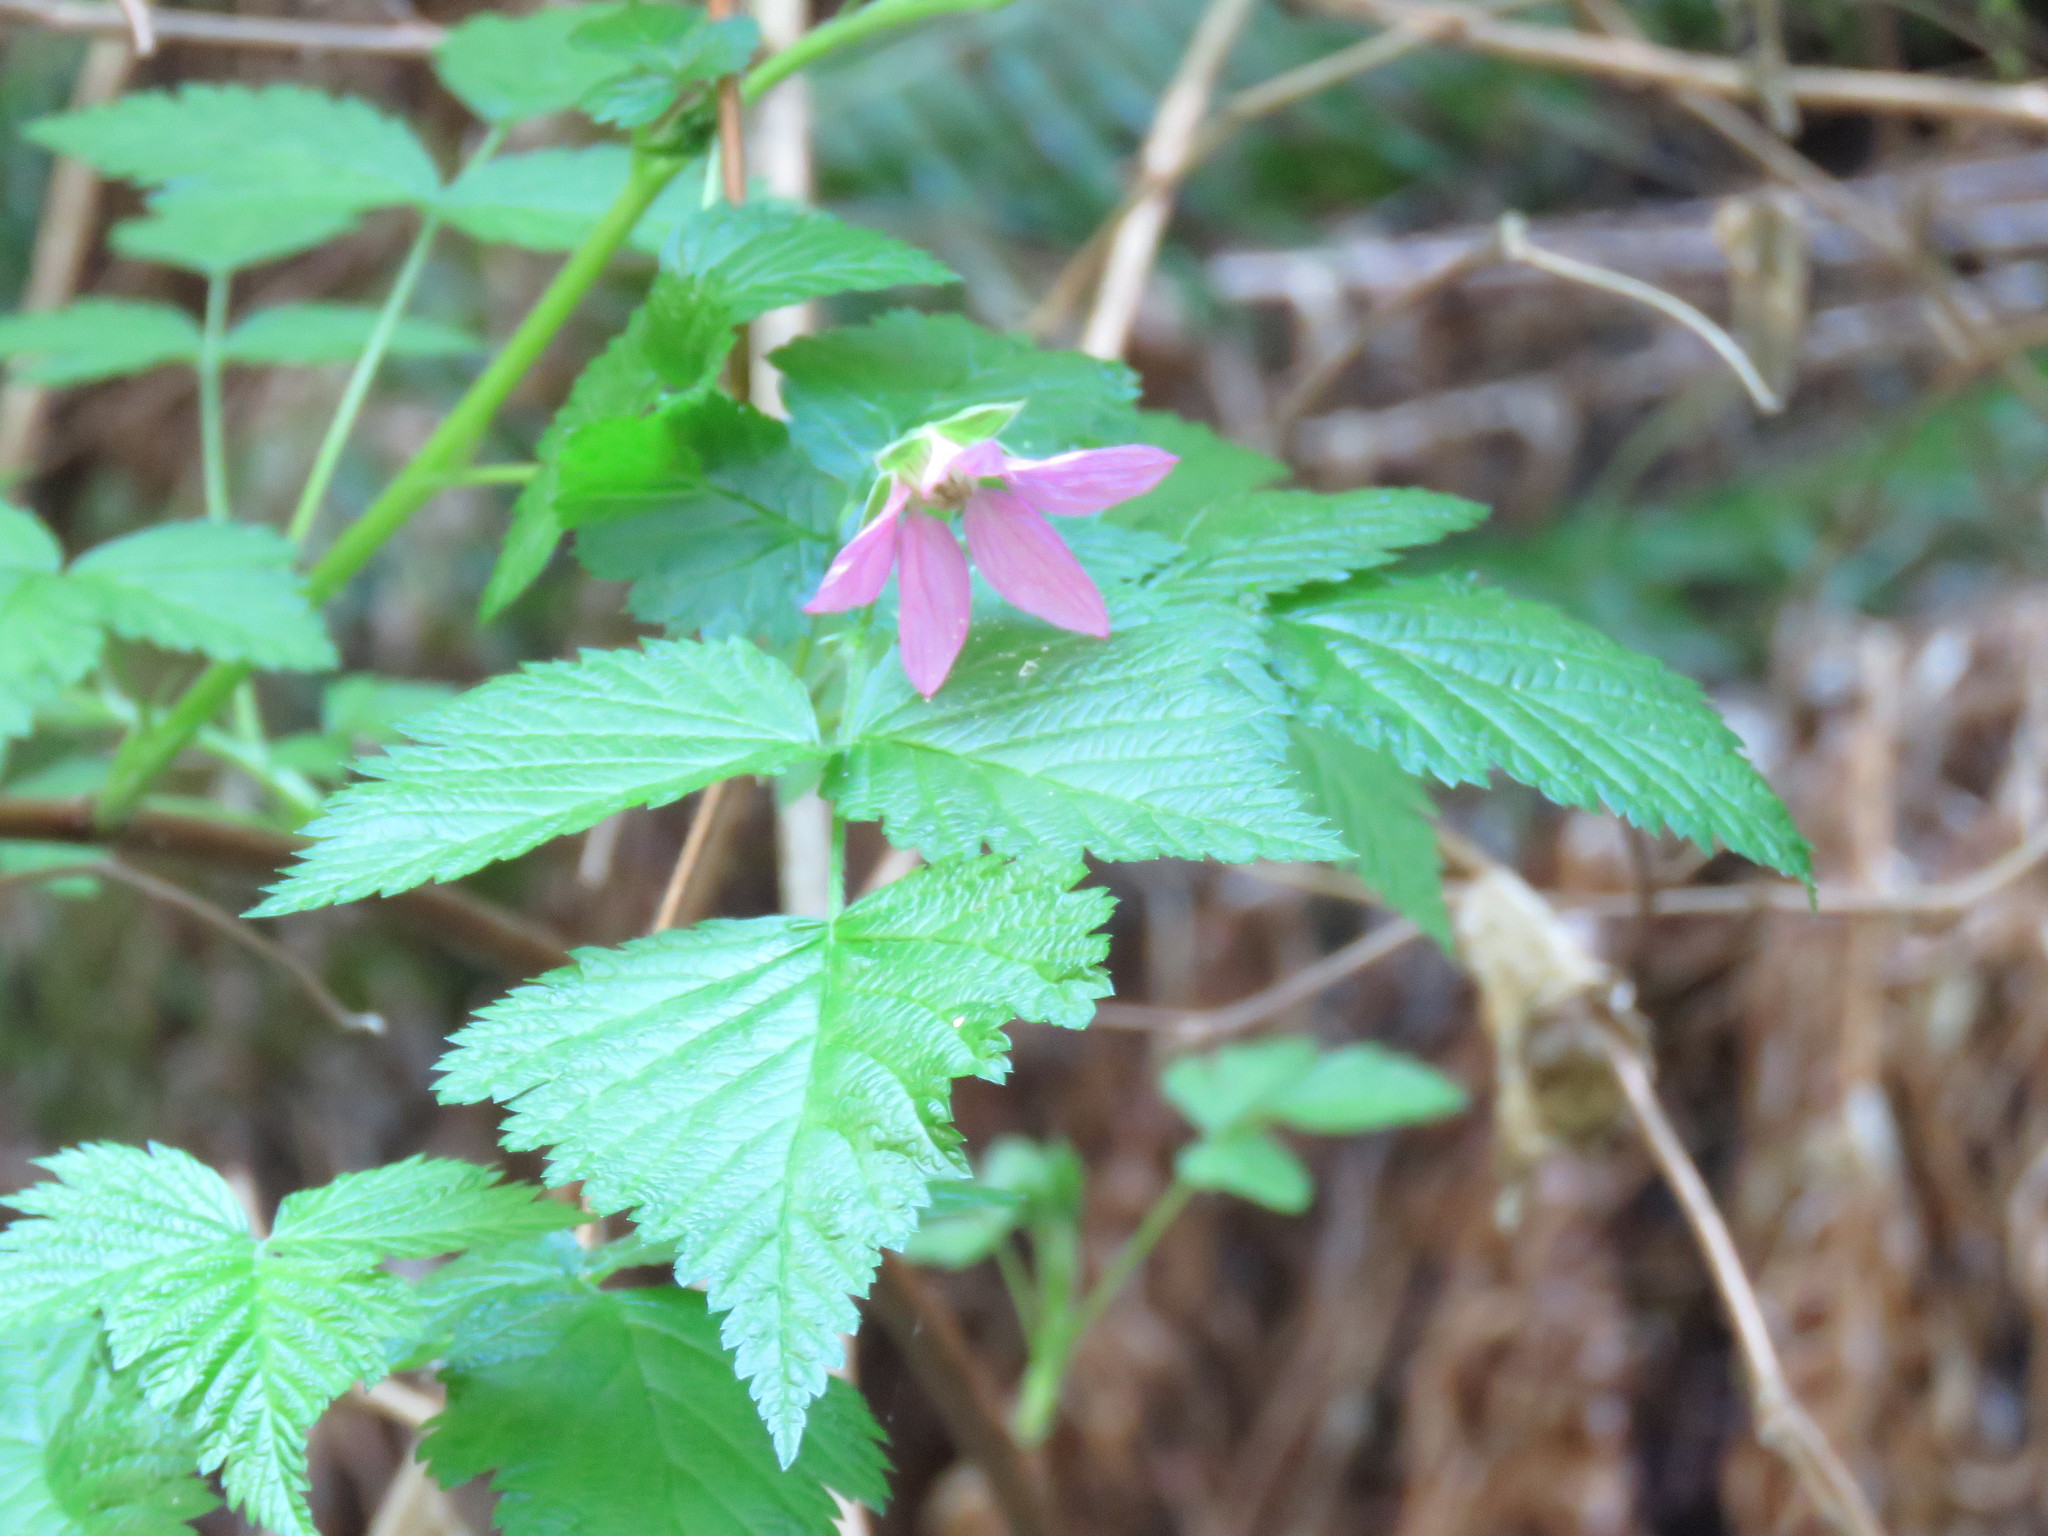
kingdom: Plantae
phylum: Tracheophyta
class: Magnoliopsida
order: Rosales
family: Rosaceae
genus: Rubus
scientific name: Rubus spectabilis
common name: Salmonberry
